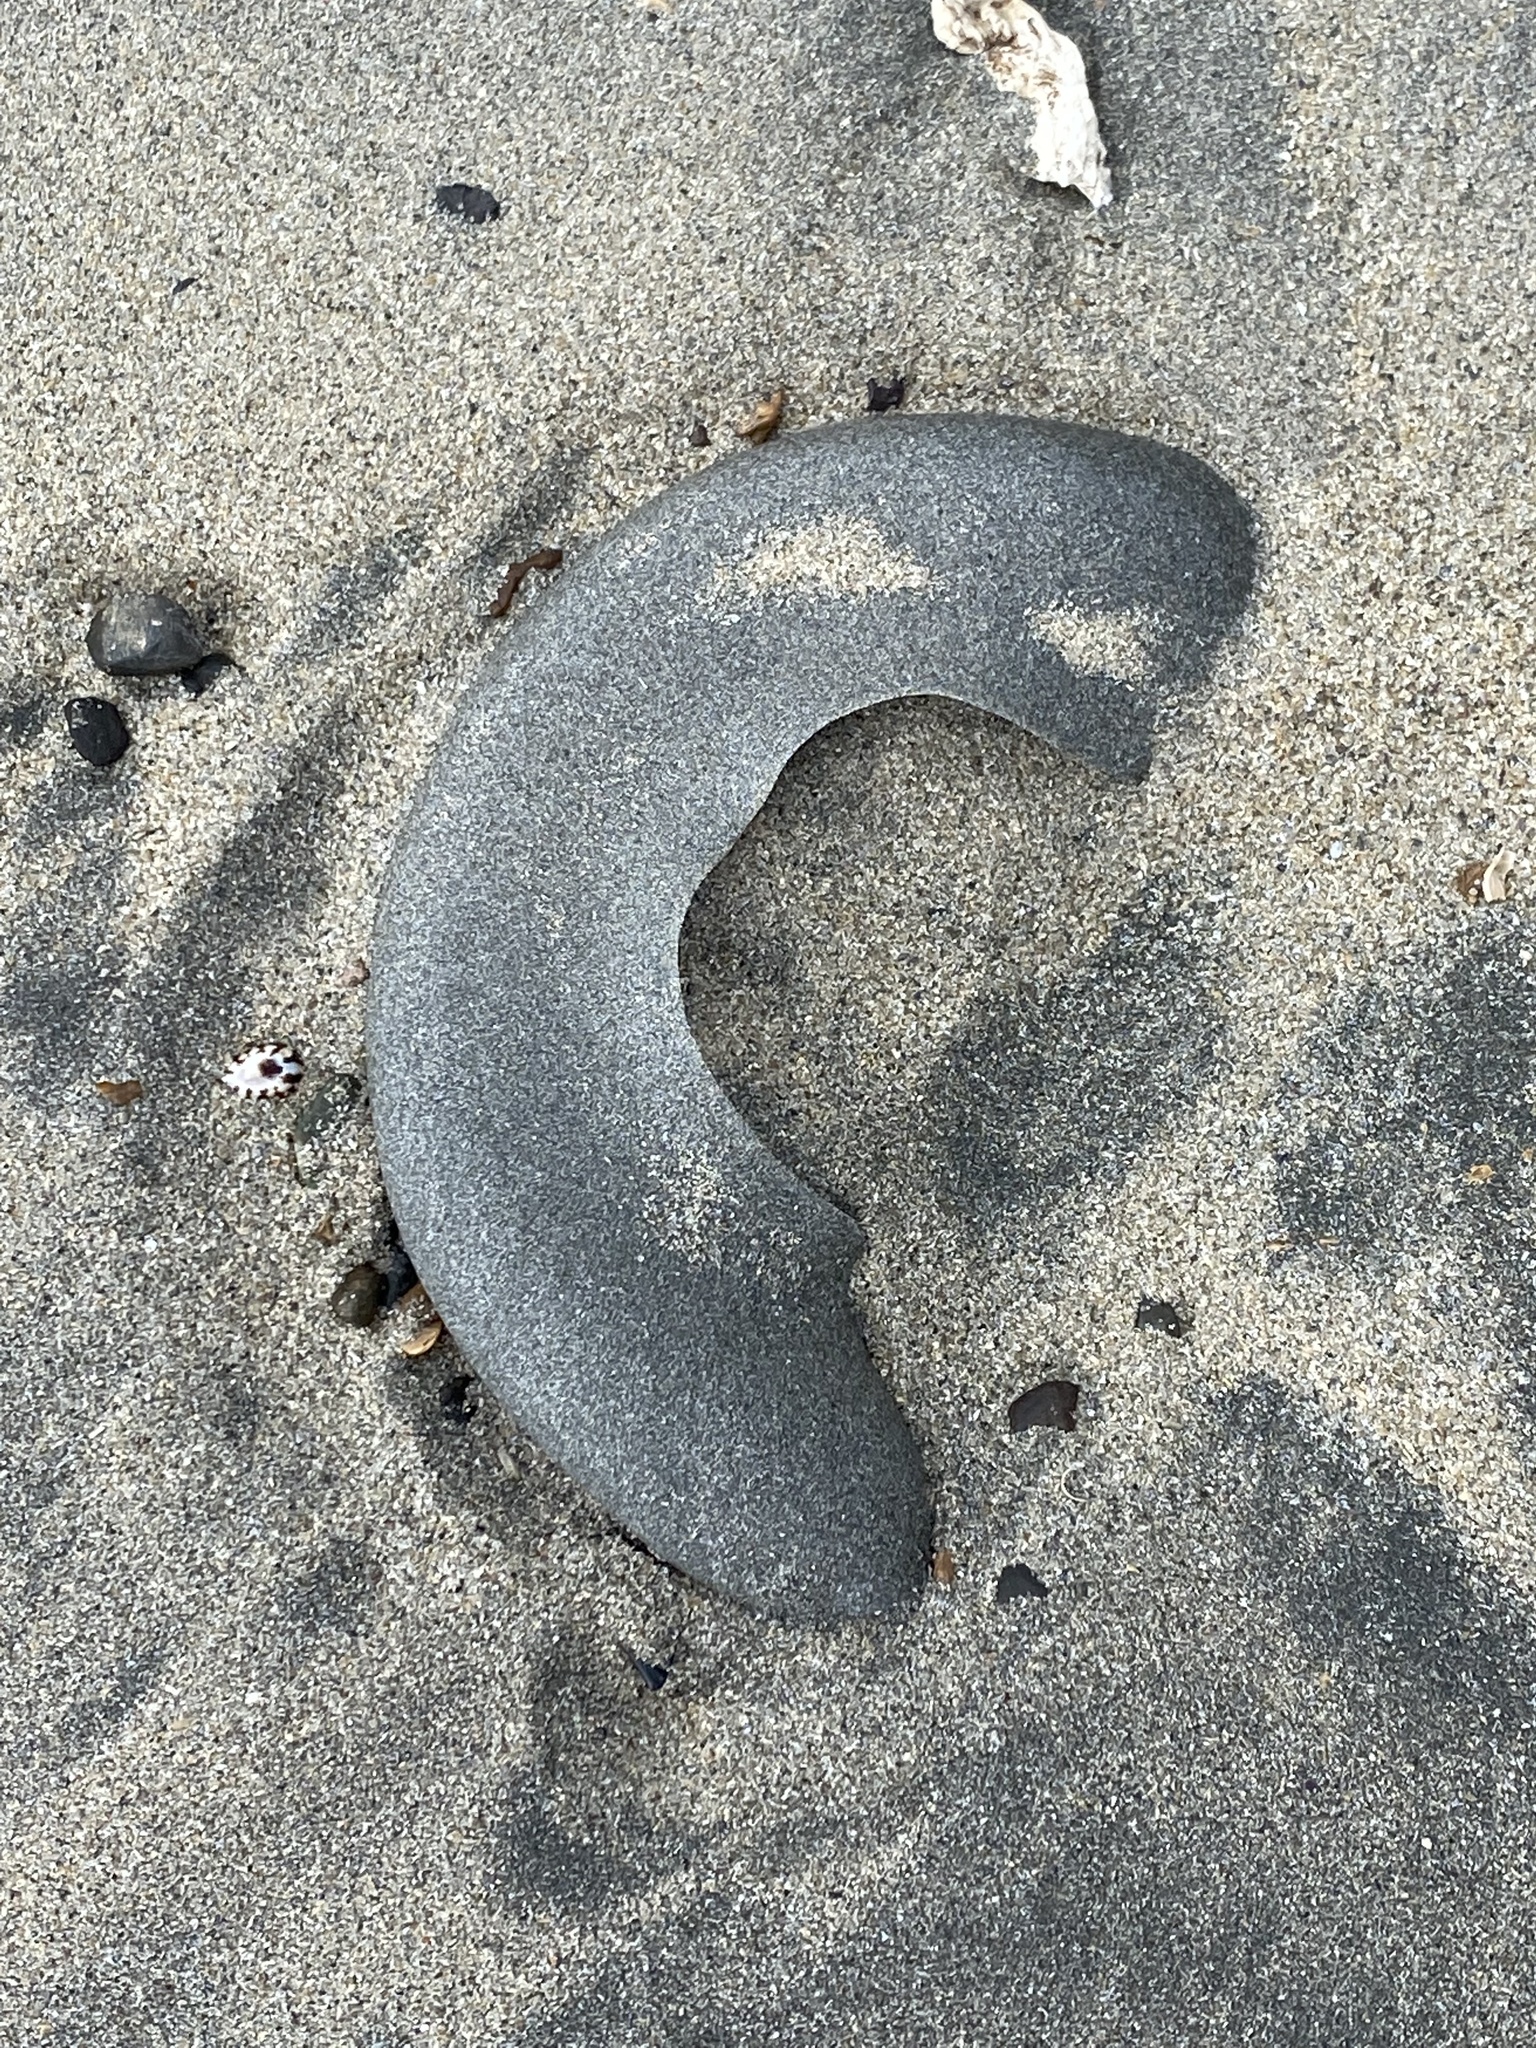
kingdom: Animalia
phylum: Mollusca
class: Gastropoda
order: Littorinimorpha
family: Naticidae
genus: Neverita
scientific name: Neverita lewisii
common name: Lewis' moonsnail
